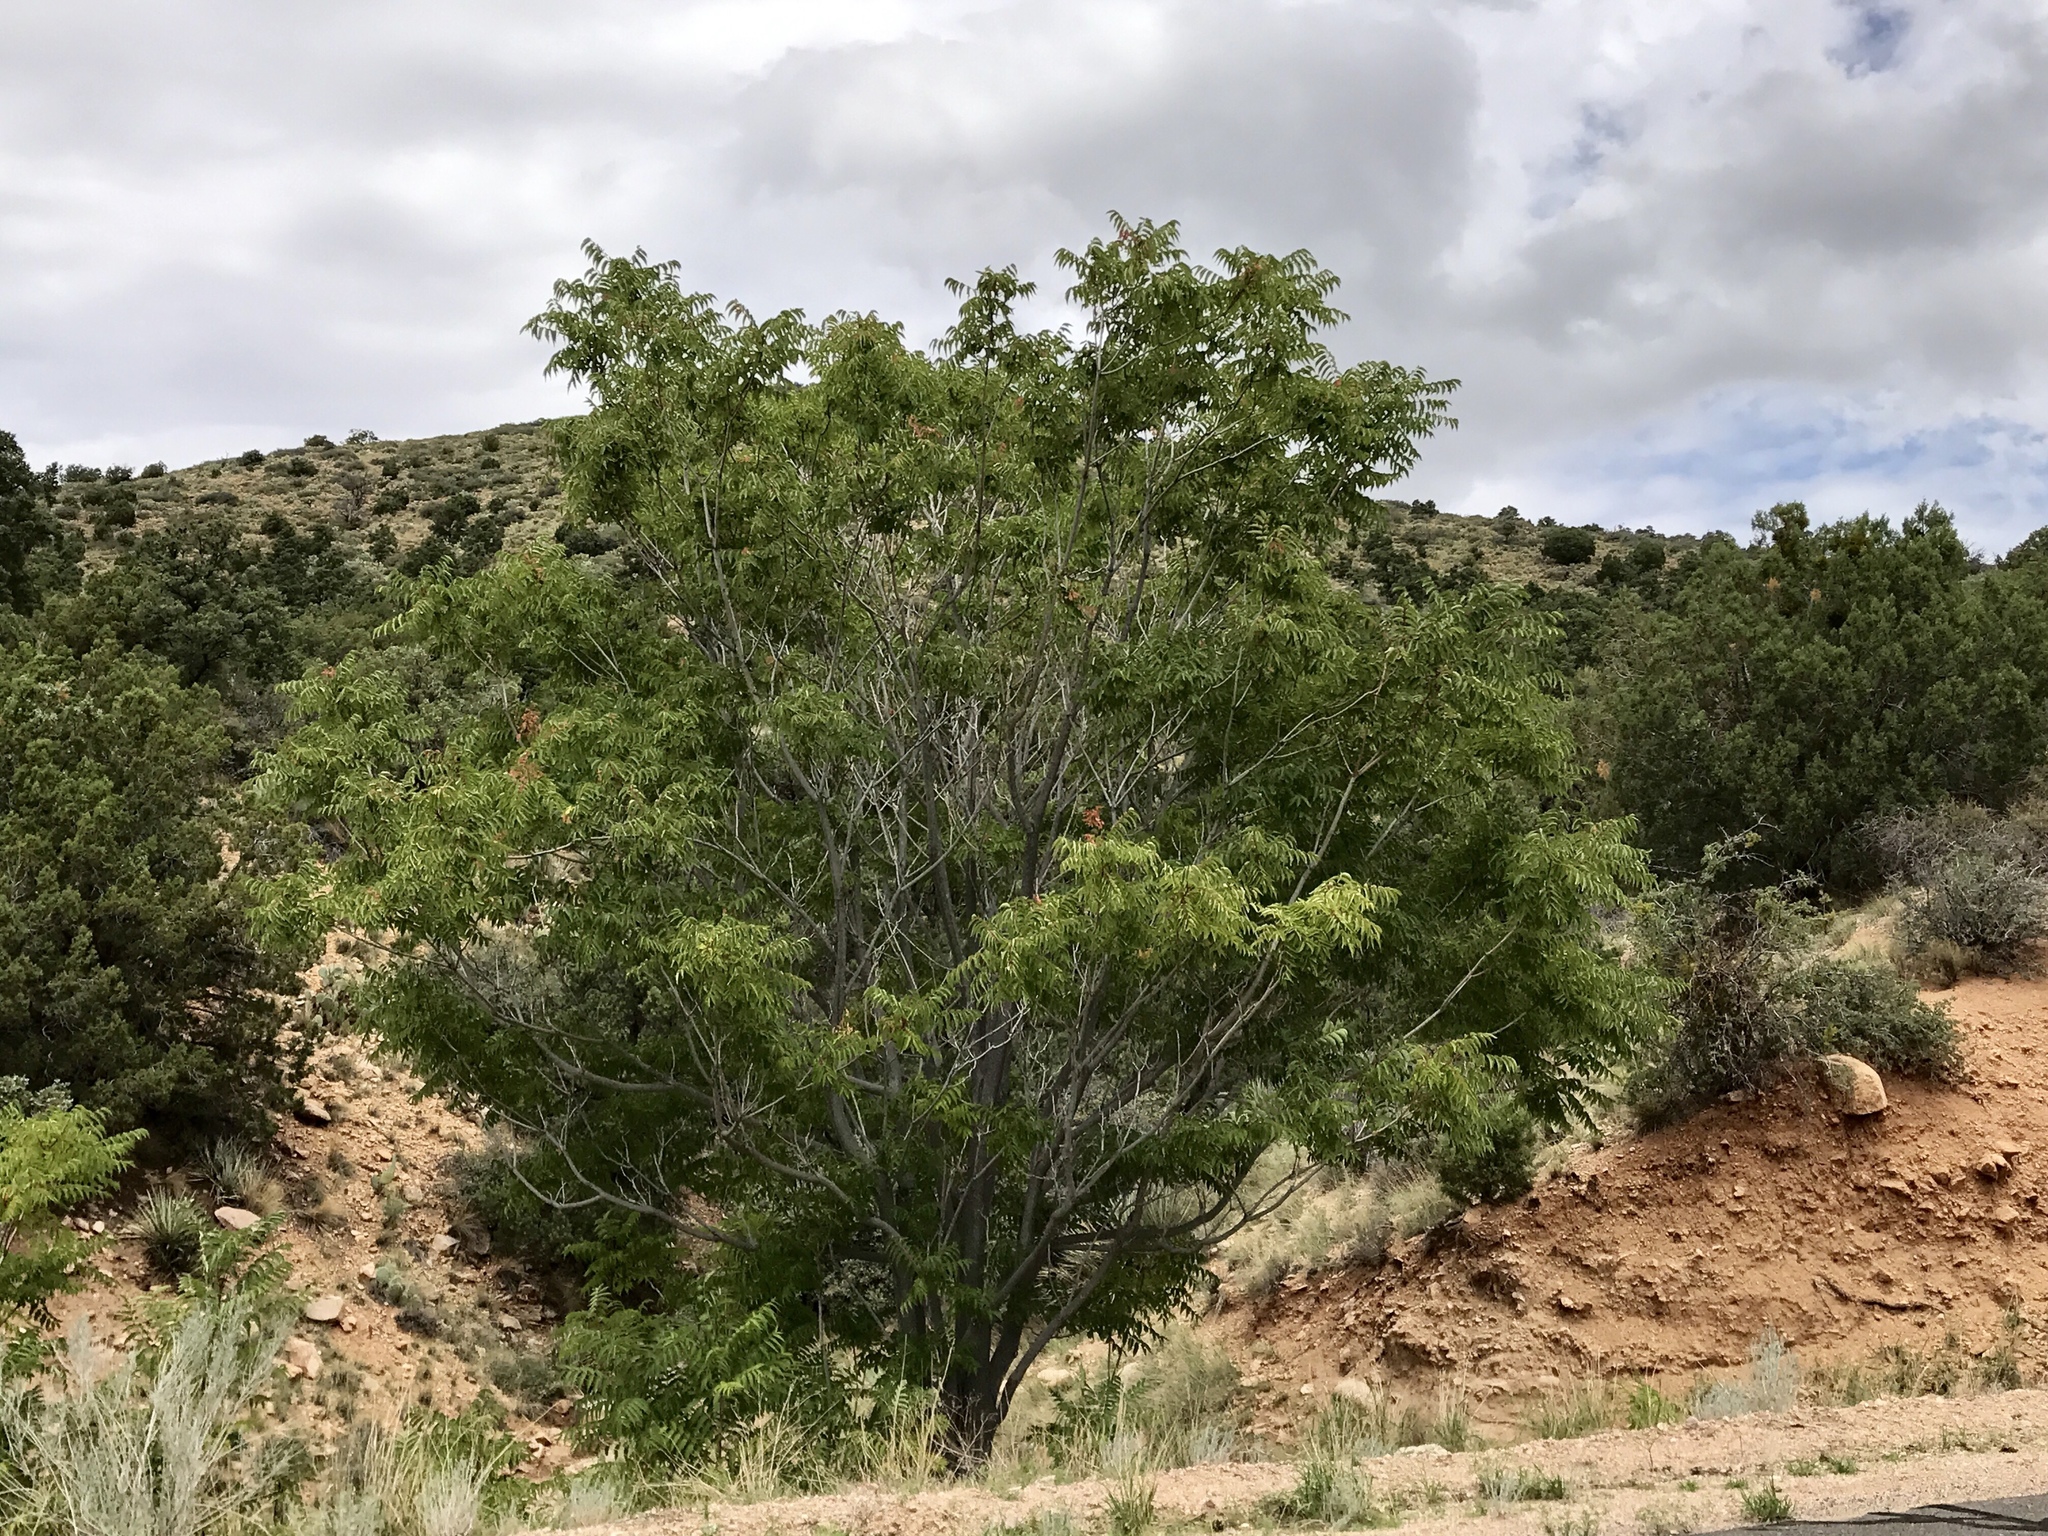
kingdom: Plantae
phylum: Tracheophyta
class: Magnoliopsida
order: Fagales
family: Juglandaceae
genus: Juglans
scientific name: Juglans major
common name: Arizona walnut
